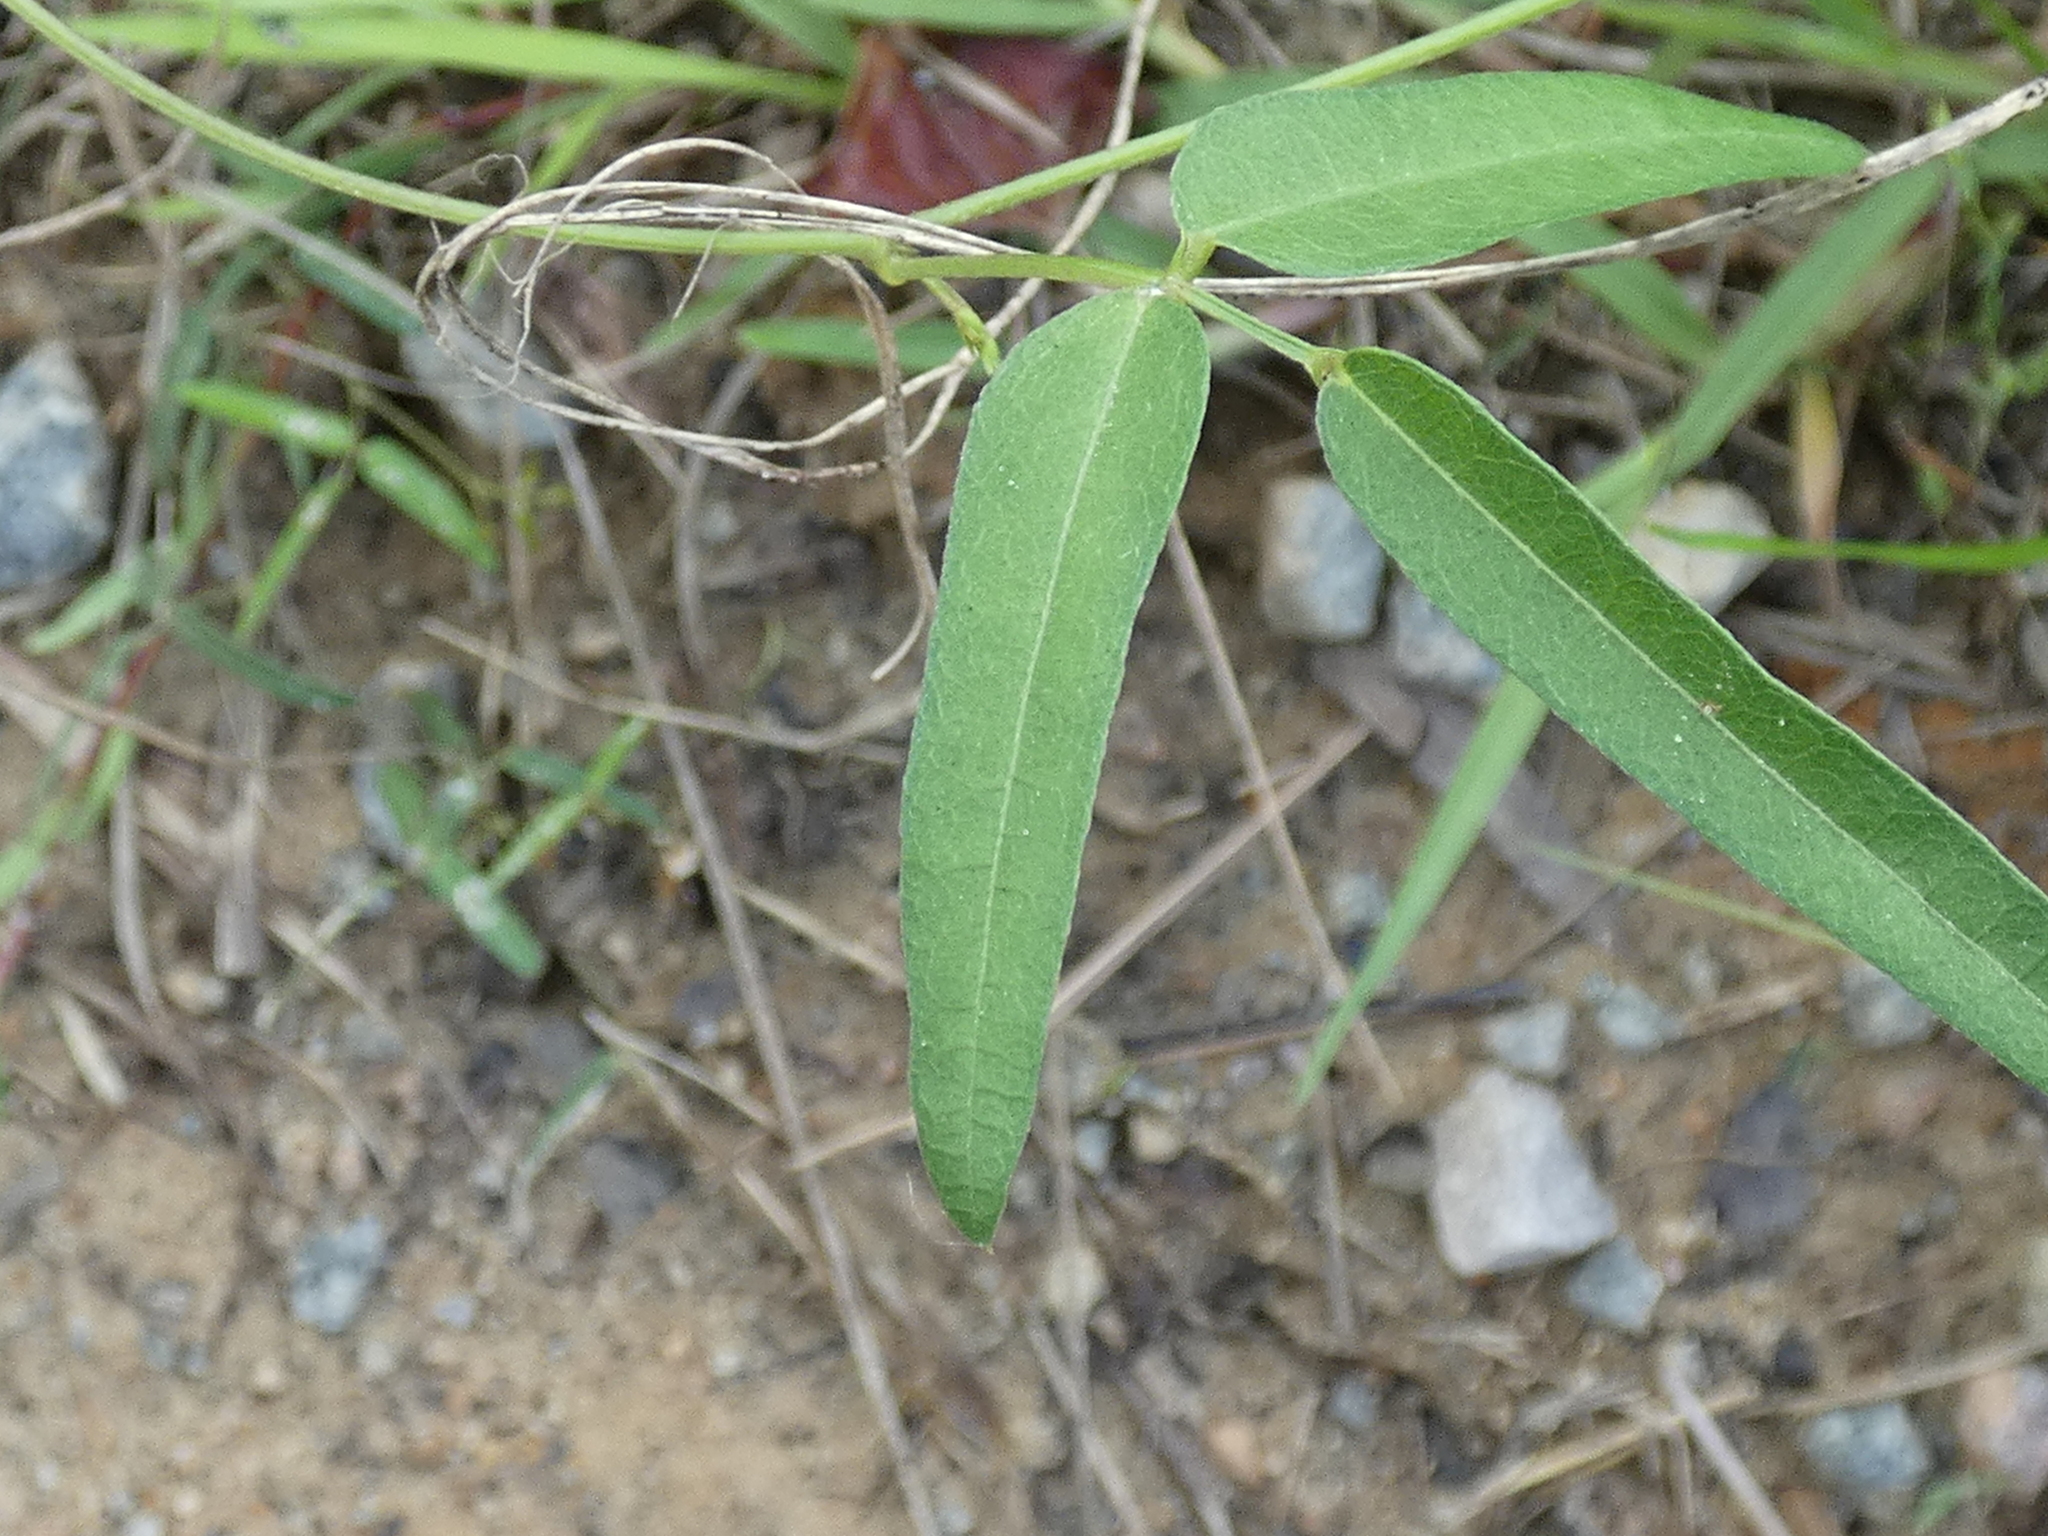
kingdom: Plantae
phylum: Tracheophyta
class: Magnoliopsida
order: Fabales
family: Fabaceae
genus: Strophostyles
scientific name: Strophostyles umbellata
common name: Perennial wild bean
